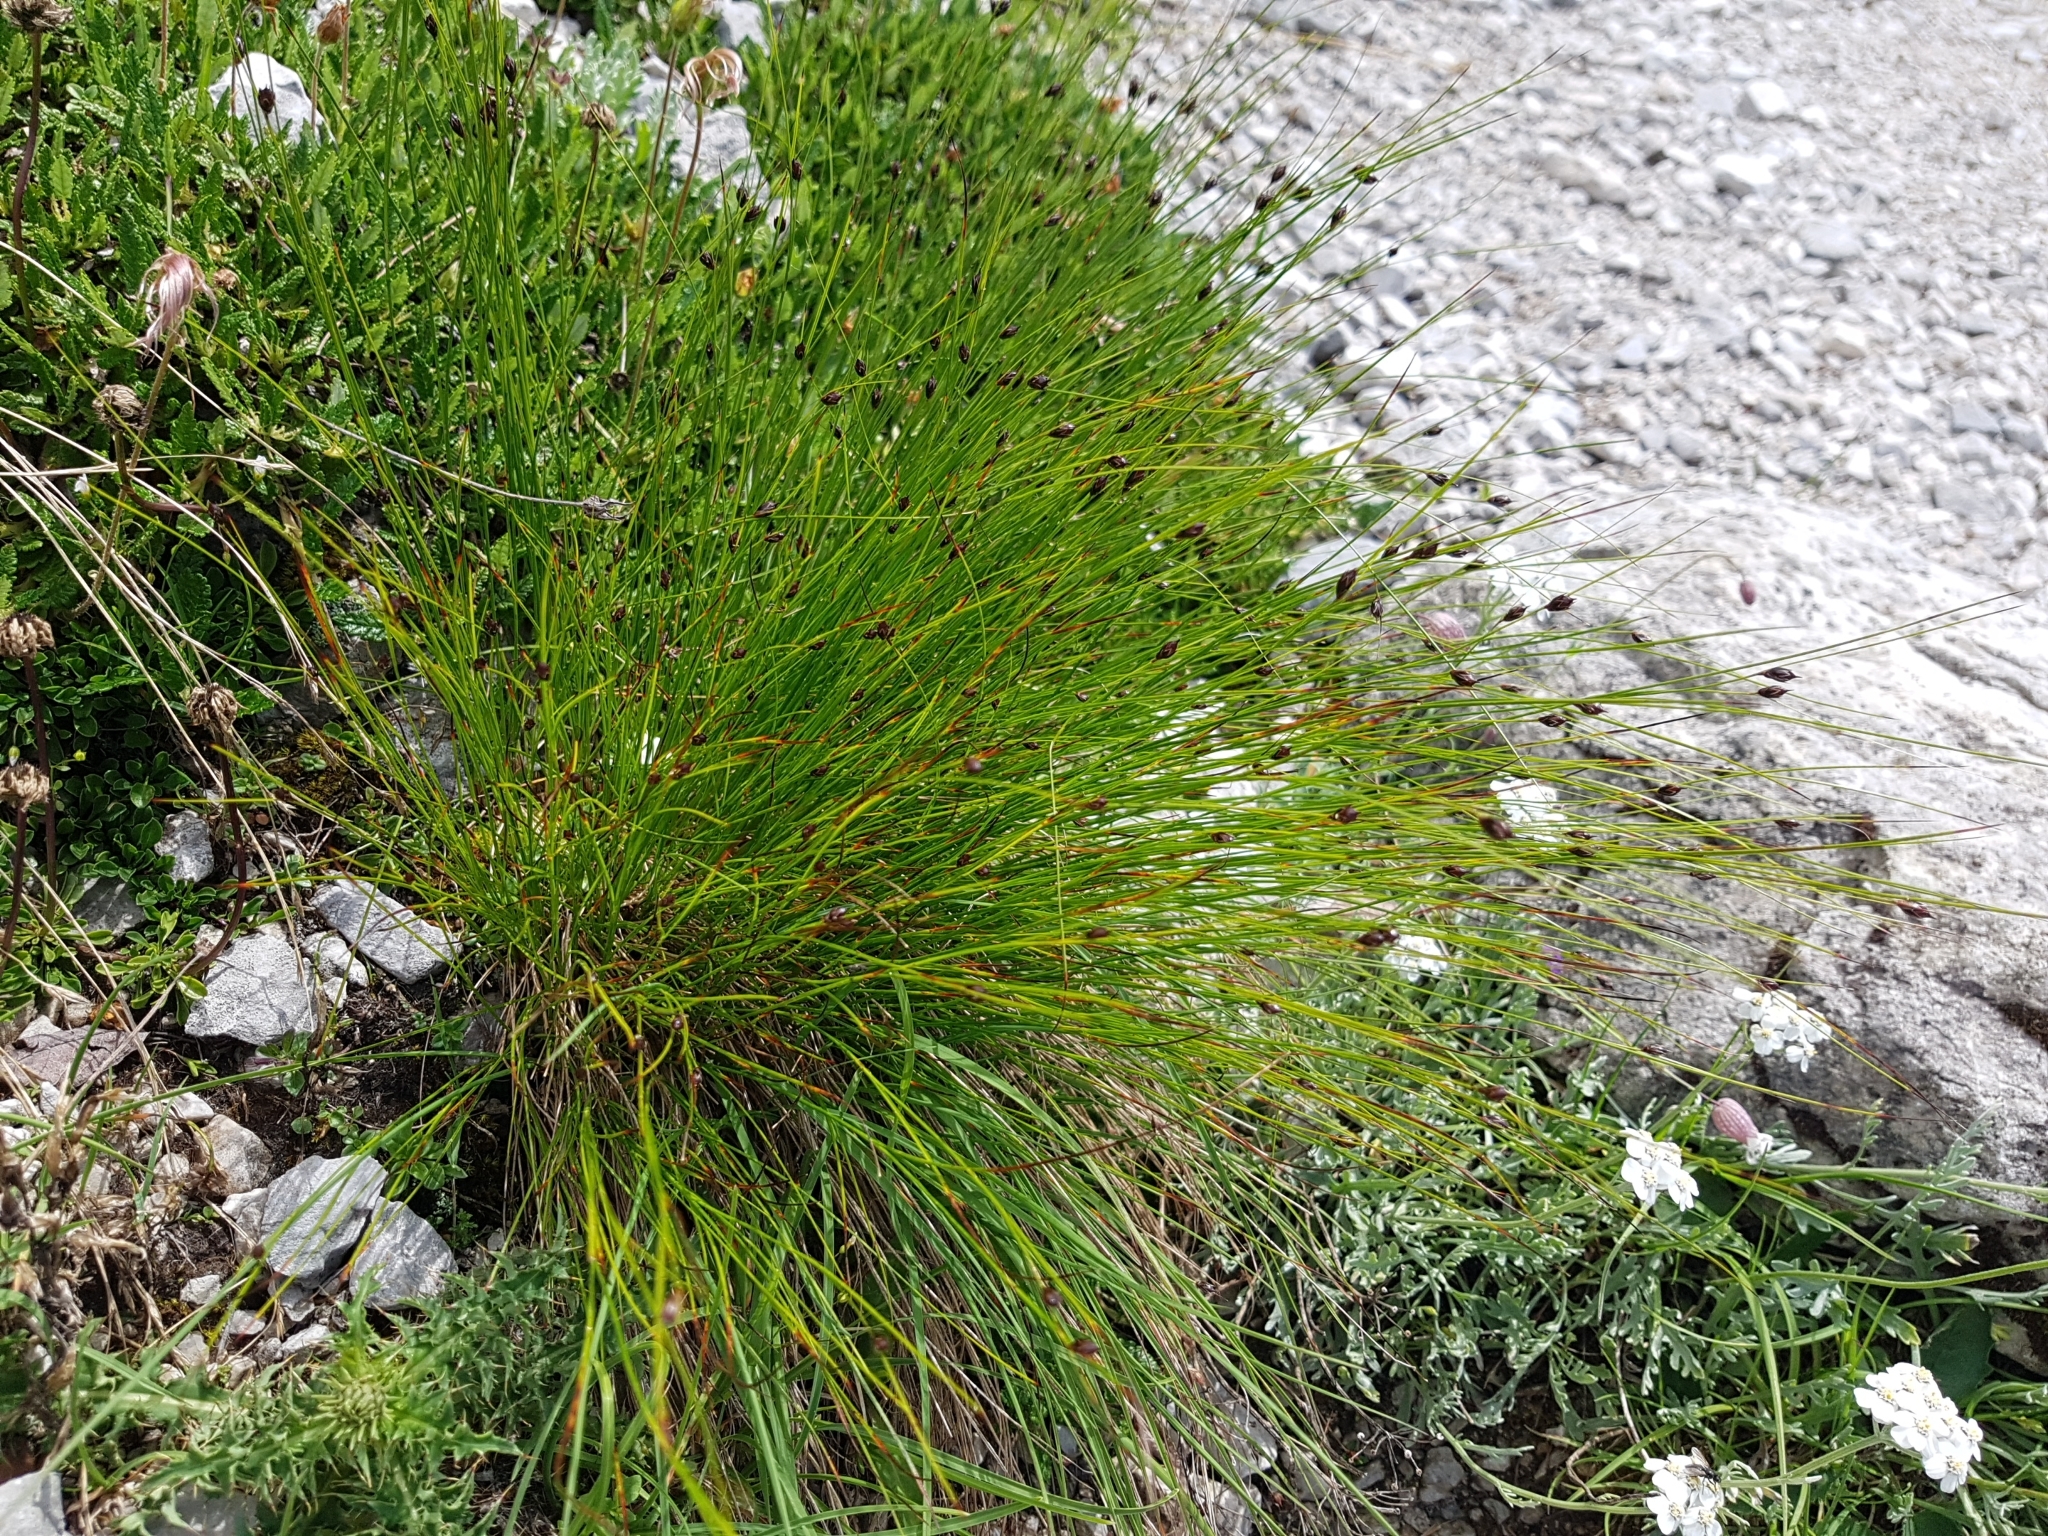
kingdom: Plantae
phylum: Tracheophyta
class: Liliopsida
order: Poales
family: Juncaceae
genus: Juncus
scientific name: Juncus jacquinii
